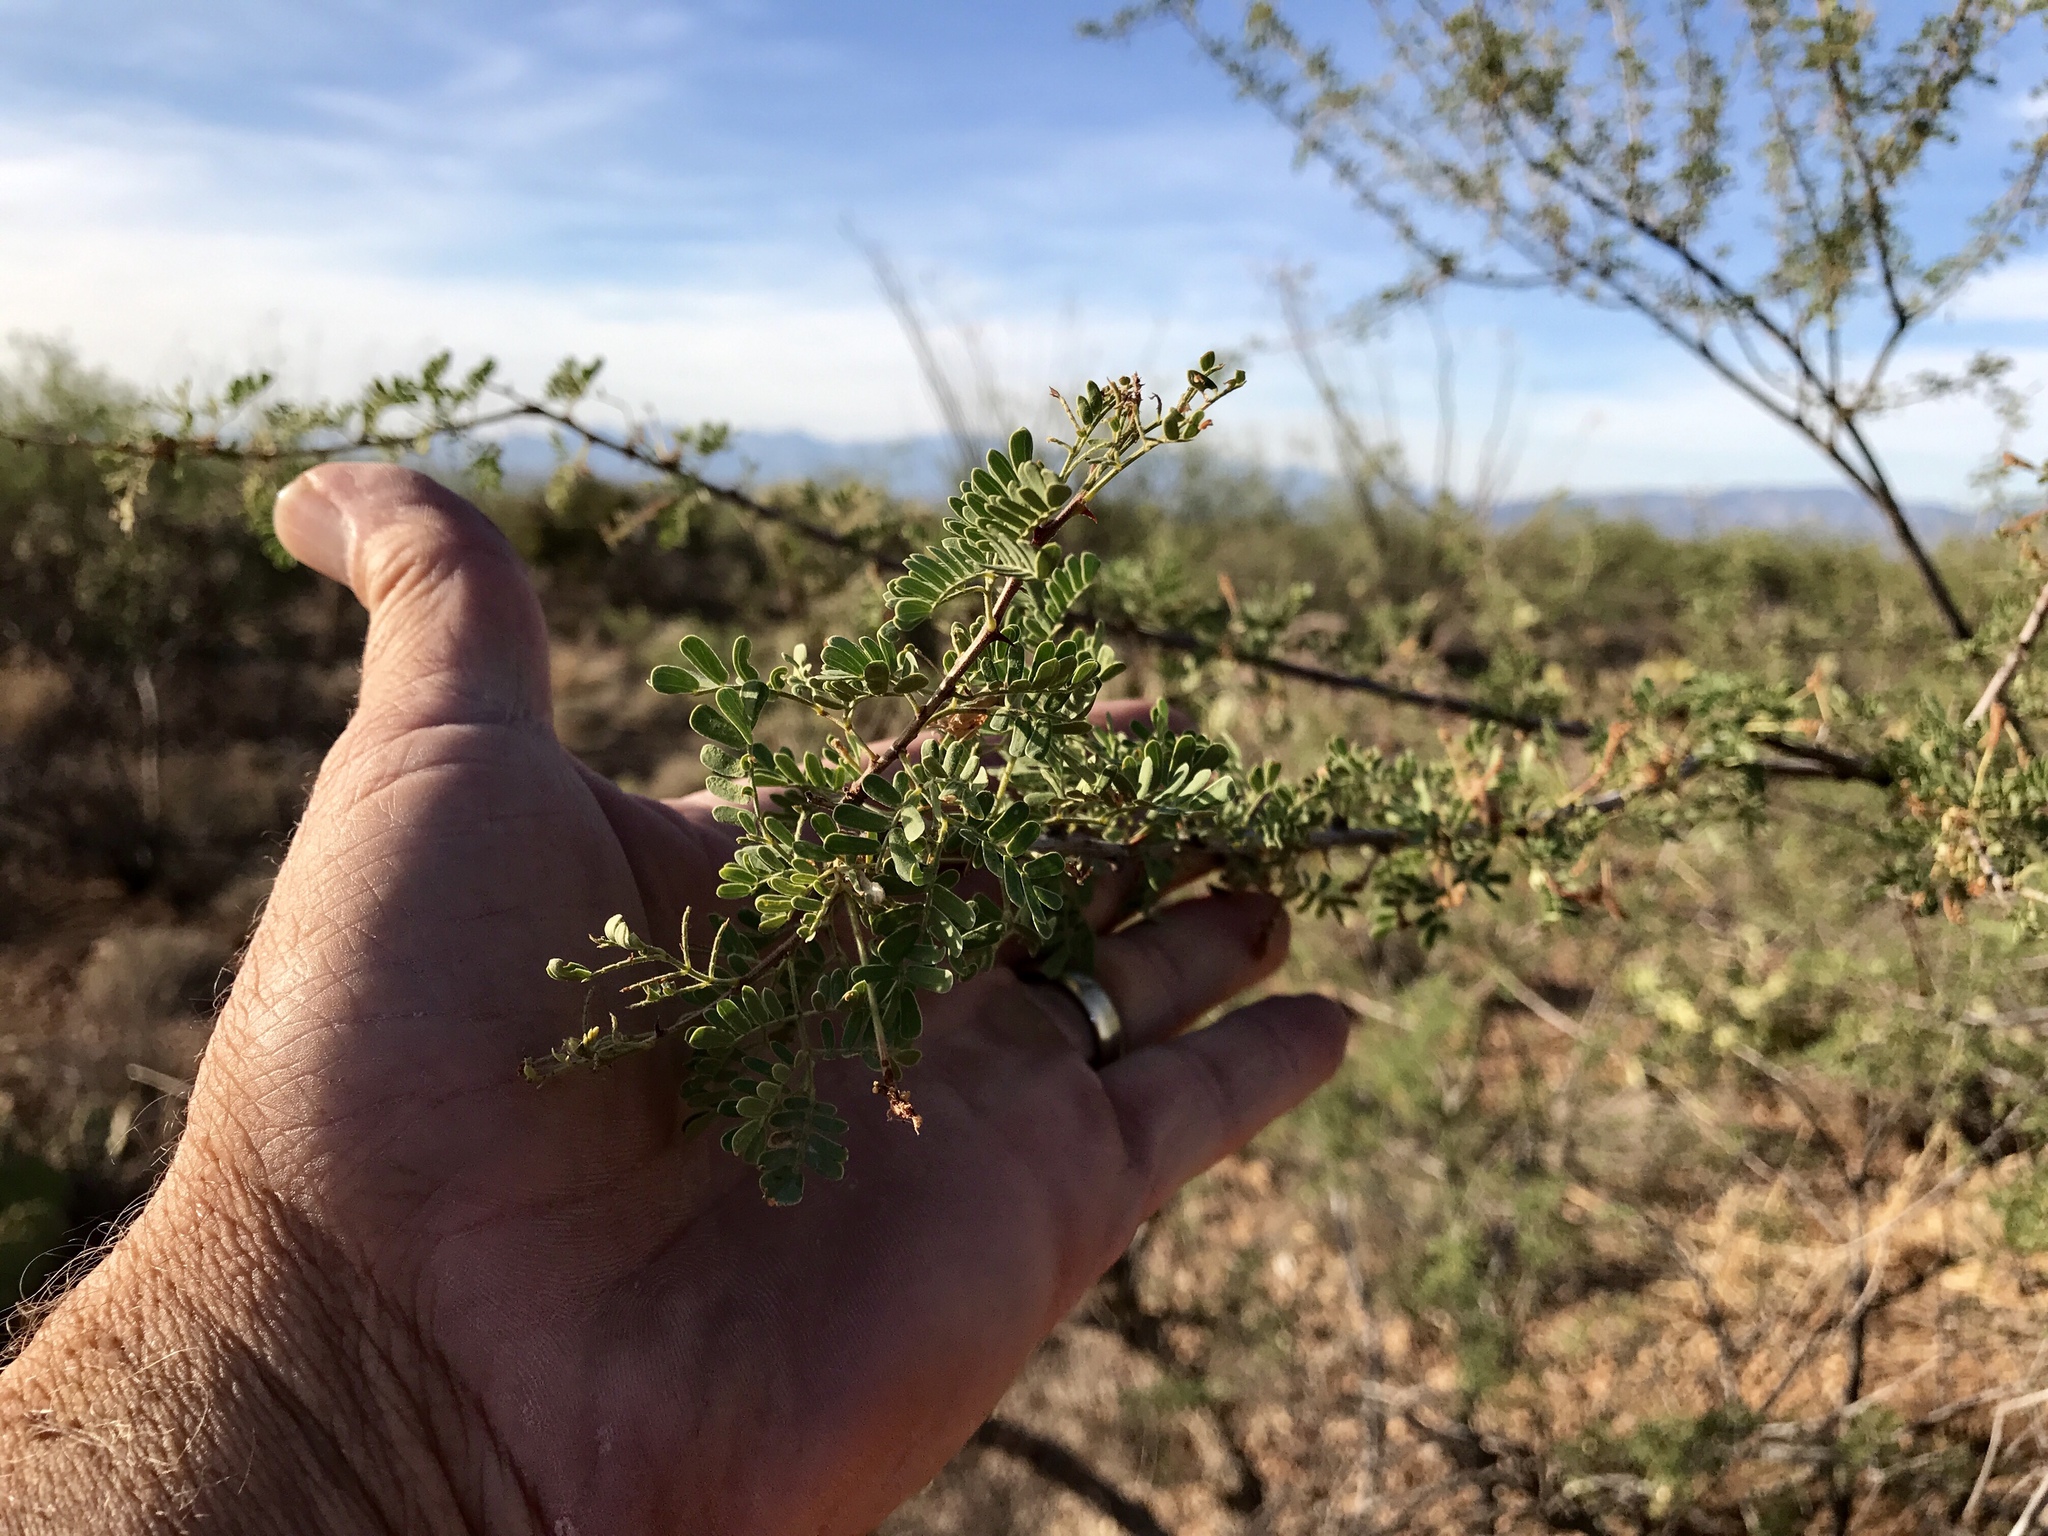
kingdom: Plantae
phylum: Tracheophyta
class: Magnoliopsida
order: Fabales
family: Fabaceae
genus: Senegalia
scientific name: Senegalia greggii
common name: Texas-mimosa
